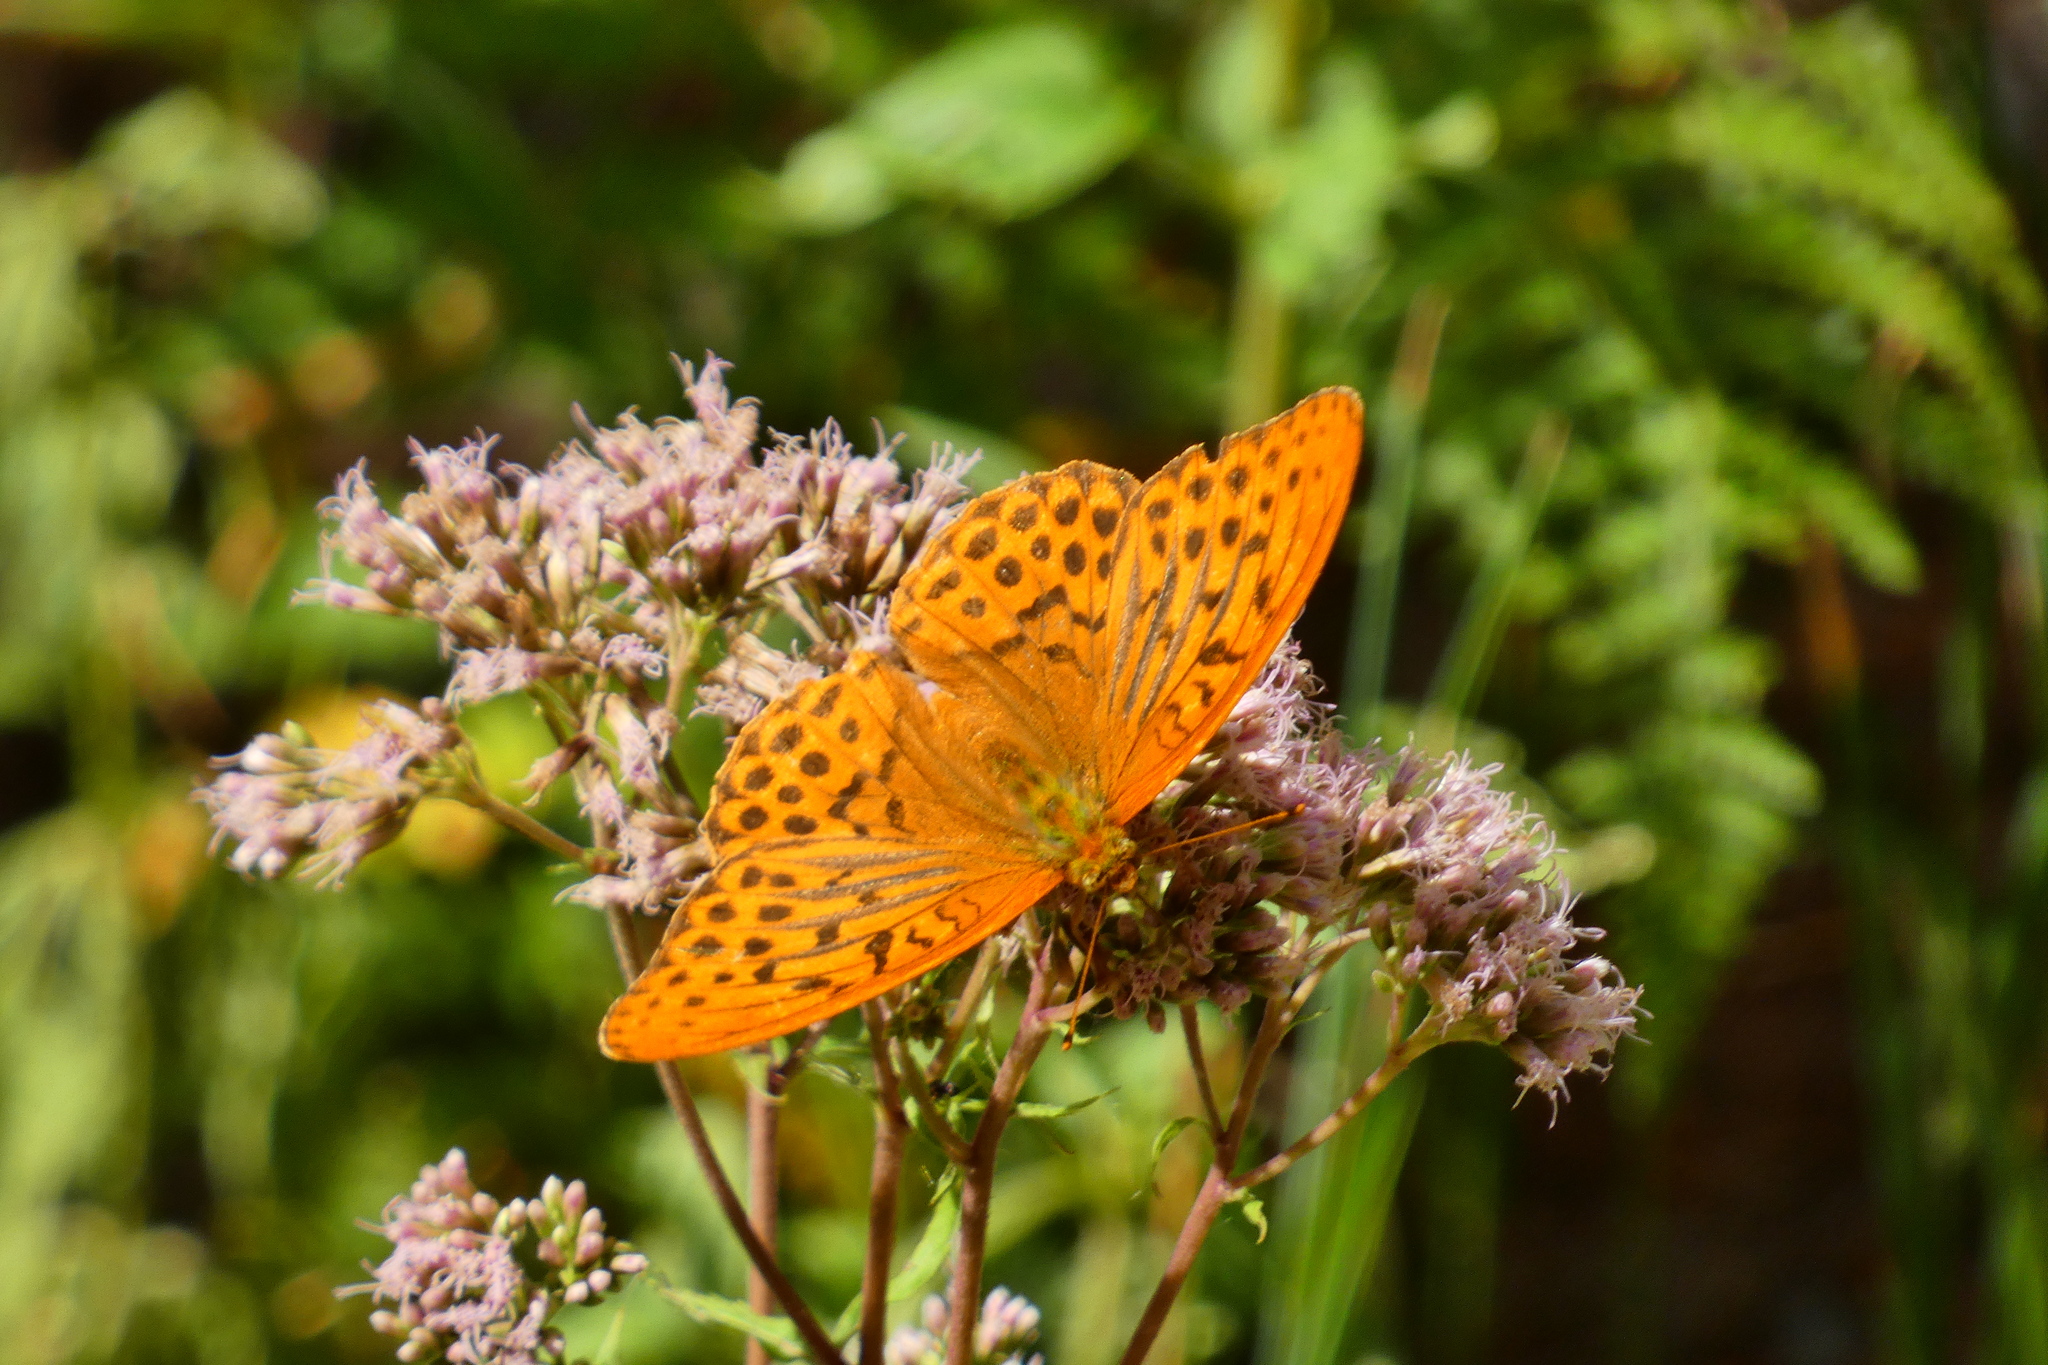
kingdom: Animalia
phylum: Arthropoda
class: Insecta
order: Lepidoptera
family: Nymphalidae
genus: Argynnis
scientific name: Argynnis paphia
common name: Silver-washed fritillary
